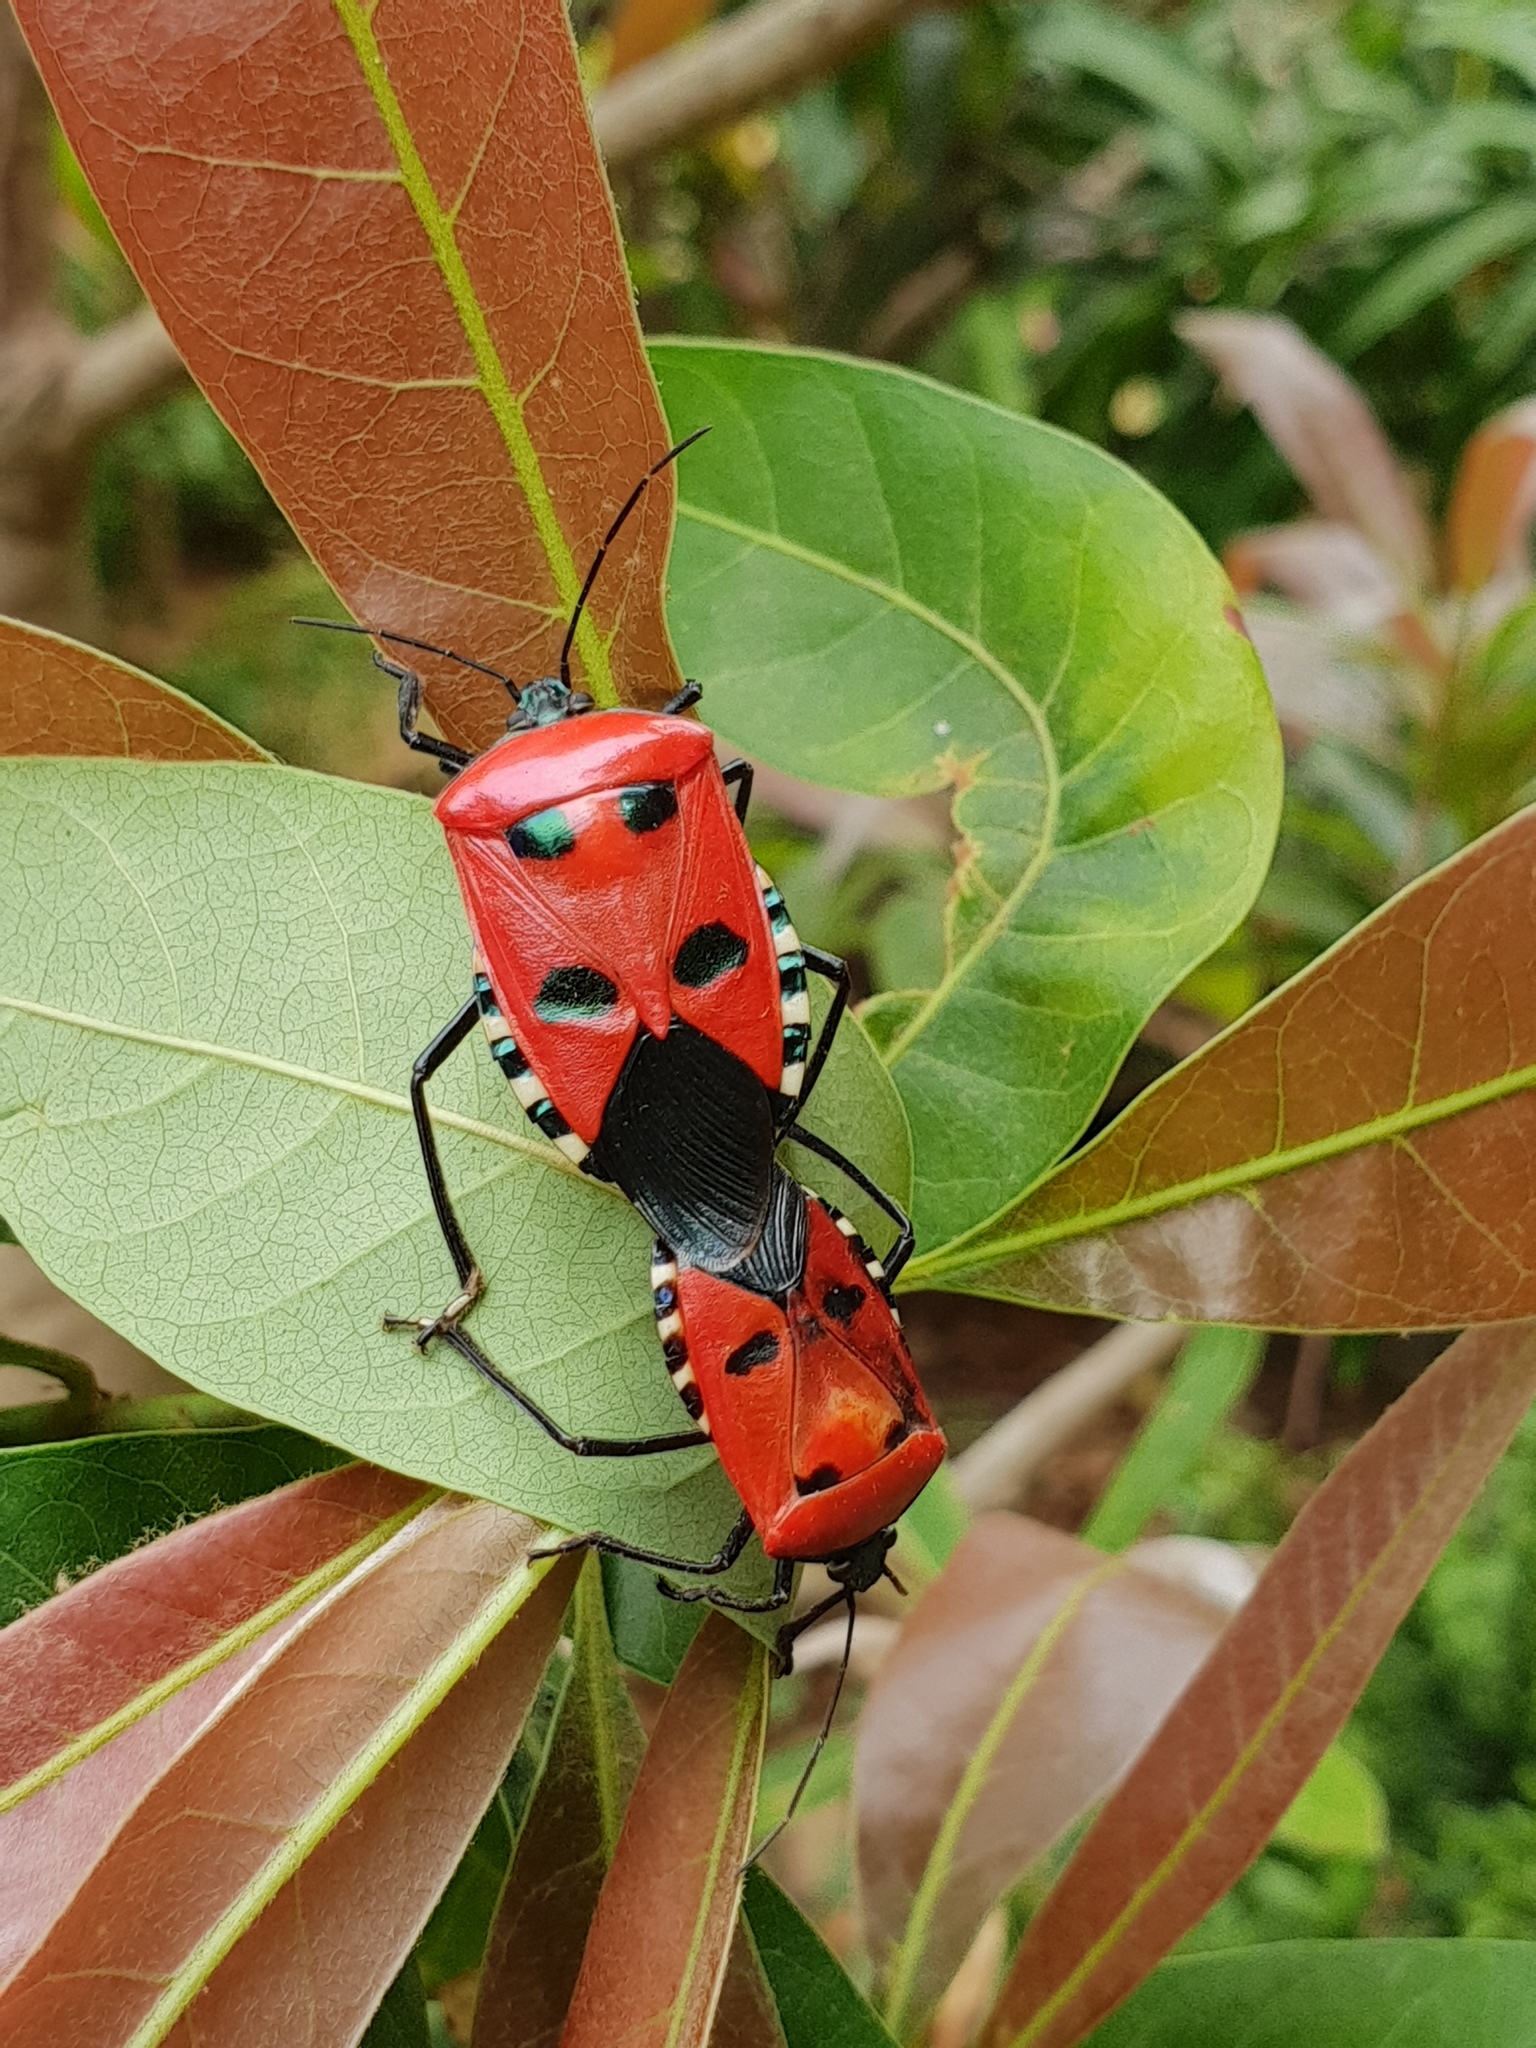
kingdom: Animalia
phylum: Arthropoda
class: Insecta
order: Hemiptera
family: Pentatomidae
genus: Catacanthus
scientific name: Catacanthus incarnatus
